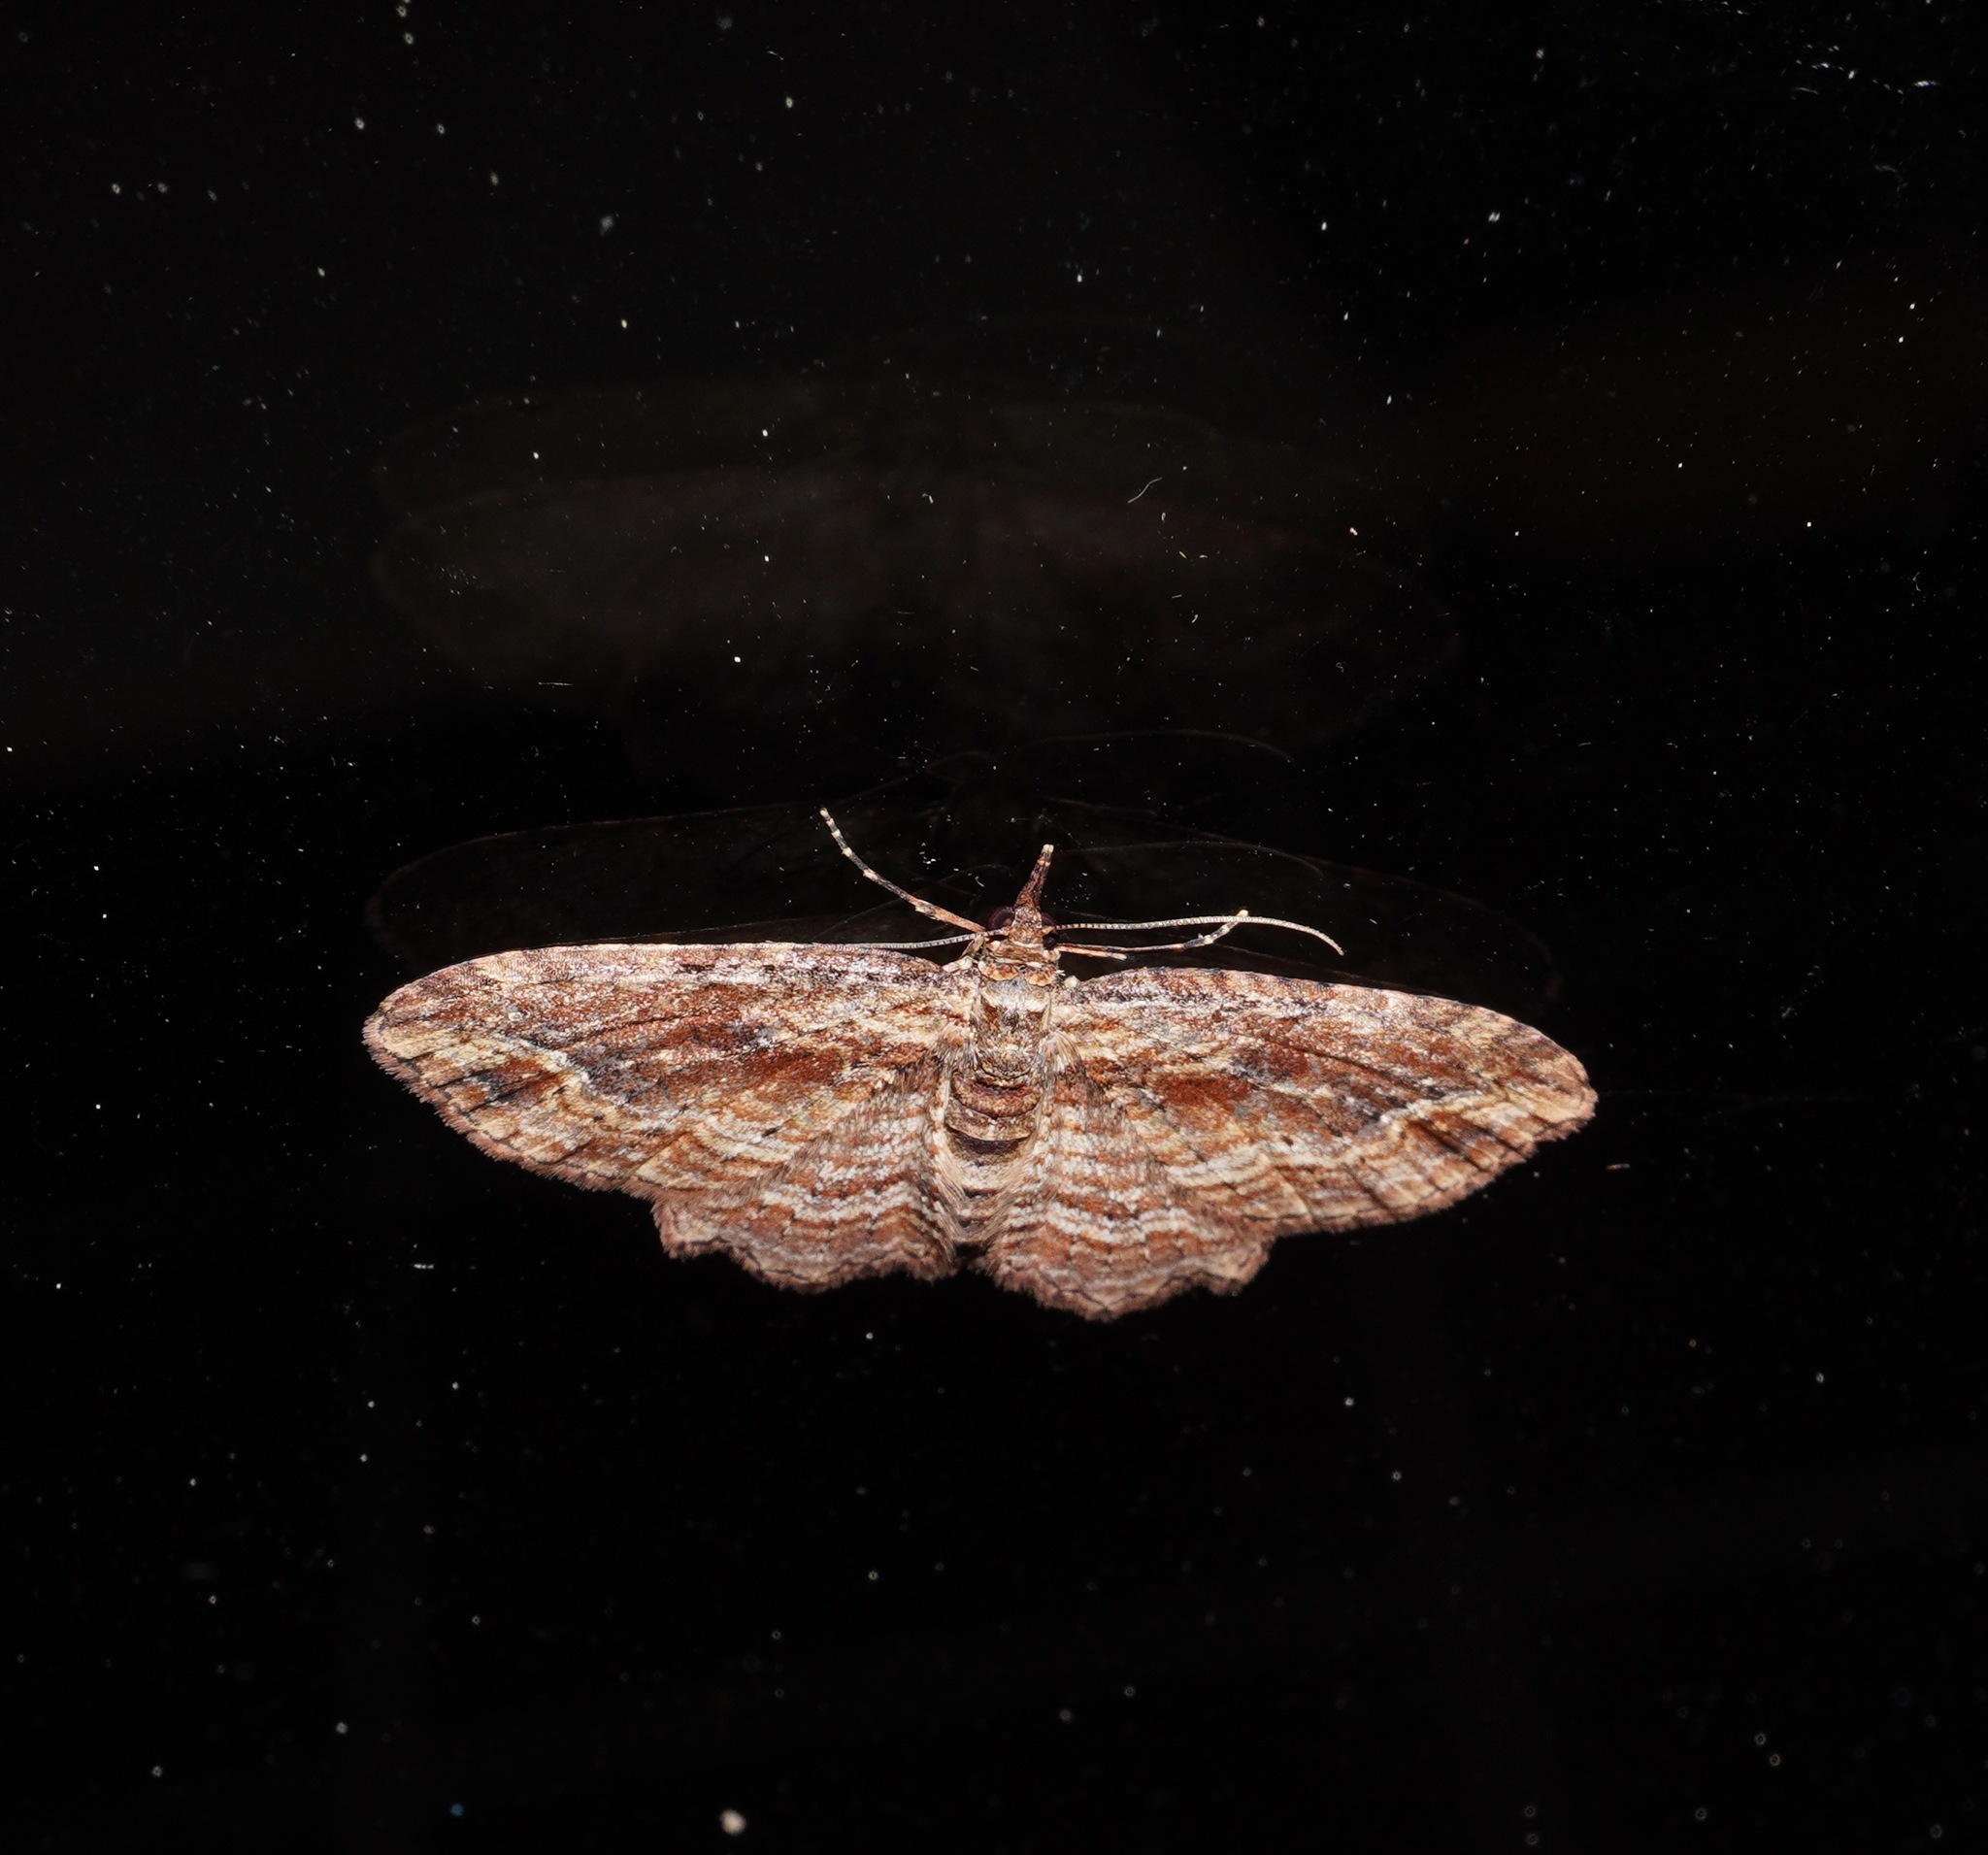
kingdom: Animalia
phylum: Arthropoda
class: Insecta
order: Lepidoptera
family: Geometridae
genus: Chloroclystis
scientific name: Chloroclystis filata
